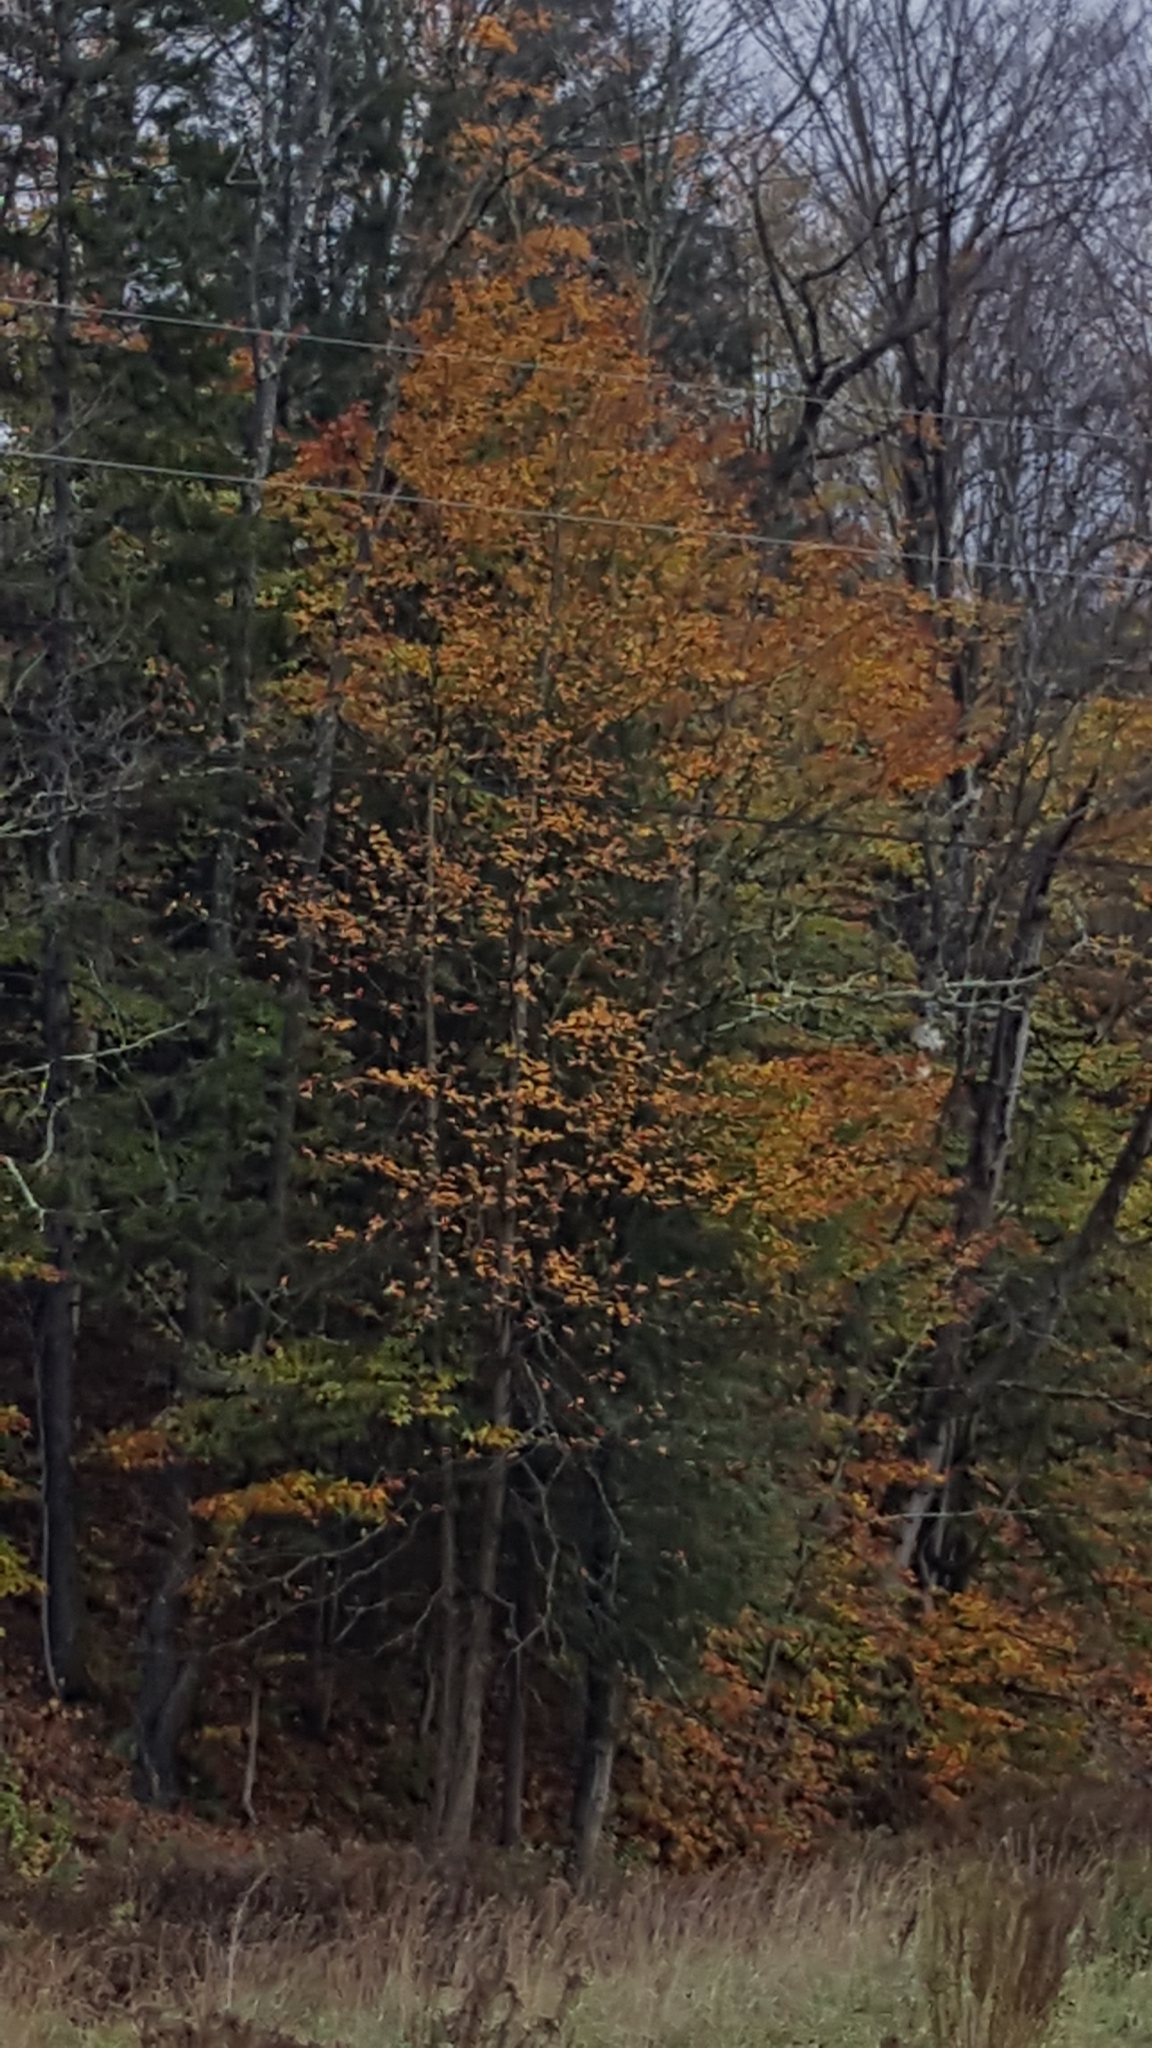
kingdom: Plantae
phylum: Tracheophyta
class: Magnoliopsida
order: Fagales
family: Fagaceae
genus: Fagus
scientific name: Fagus grandifolia
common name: American beech
